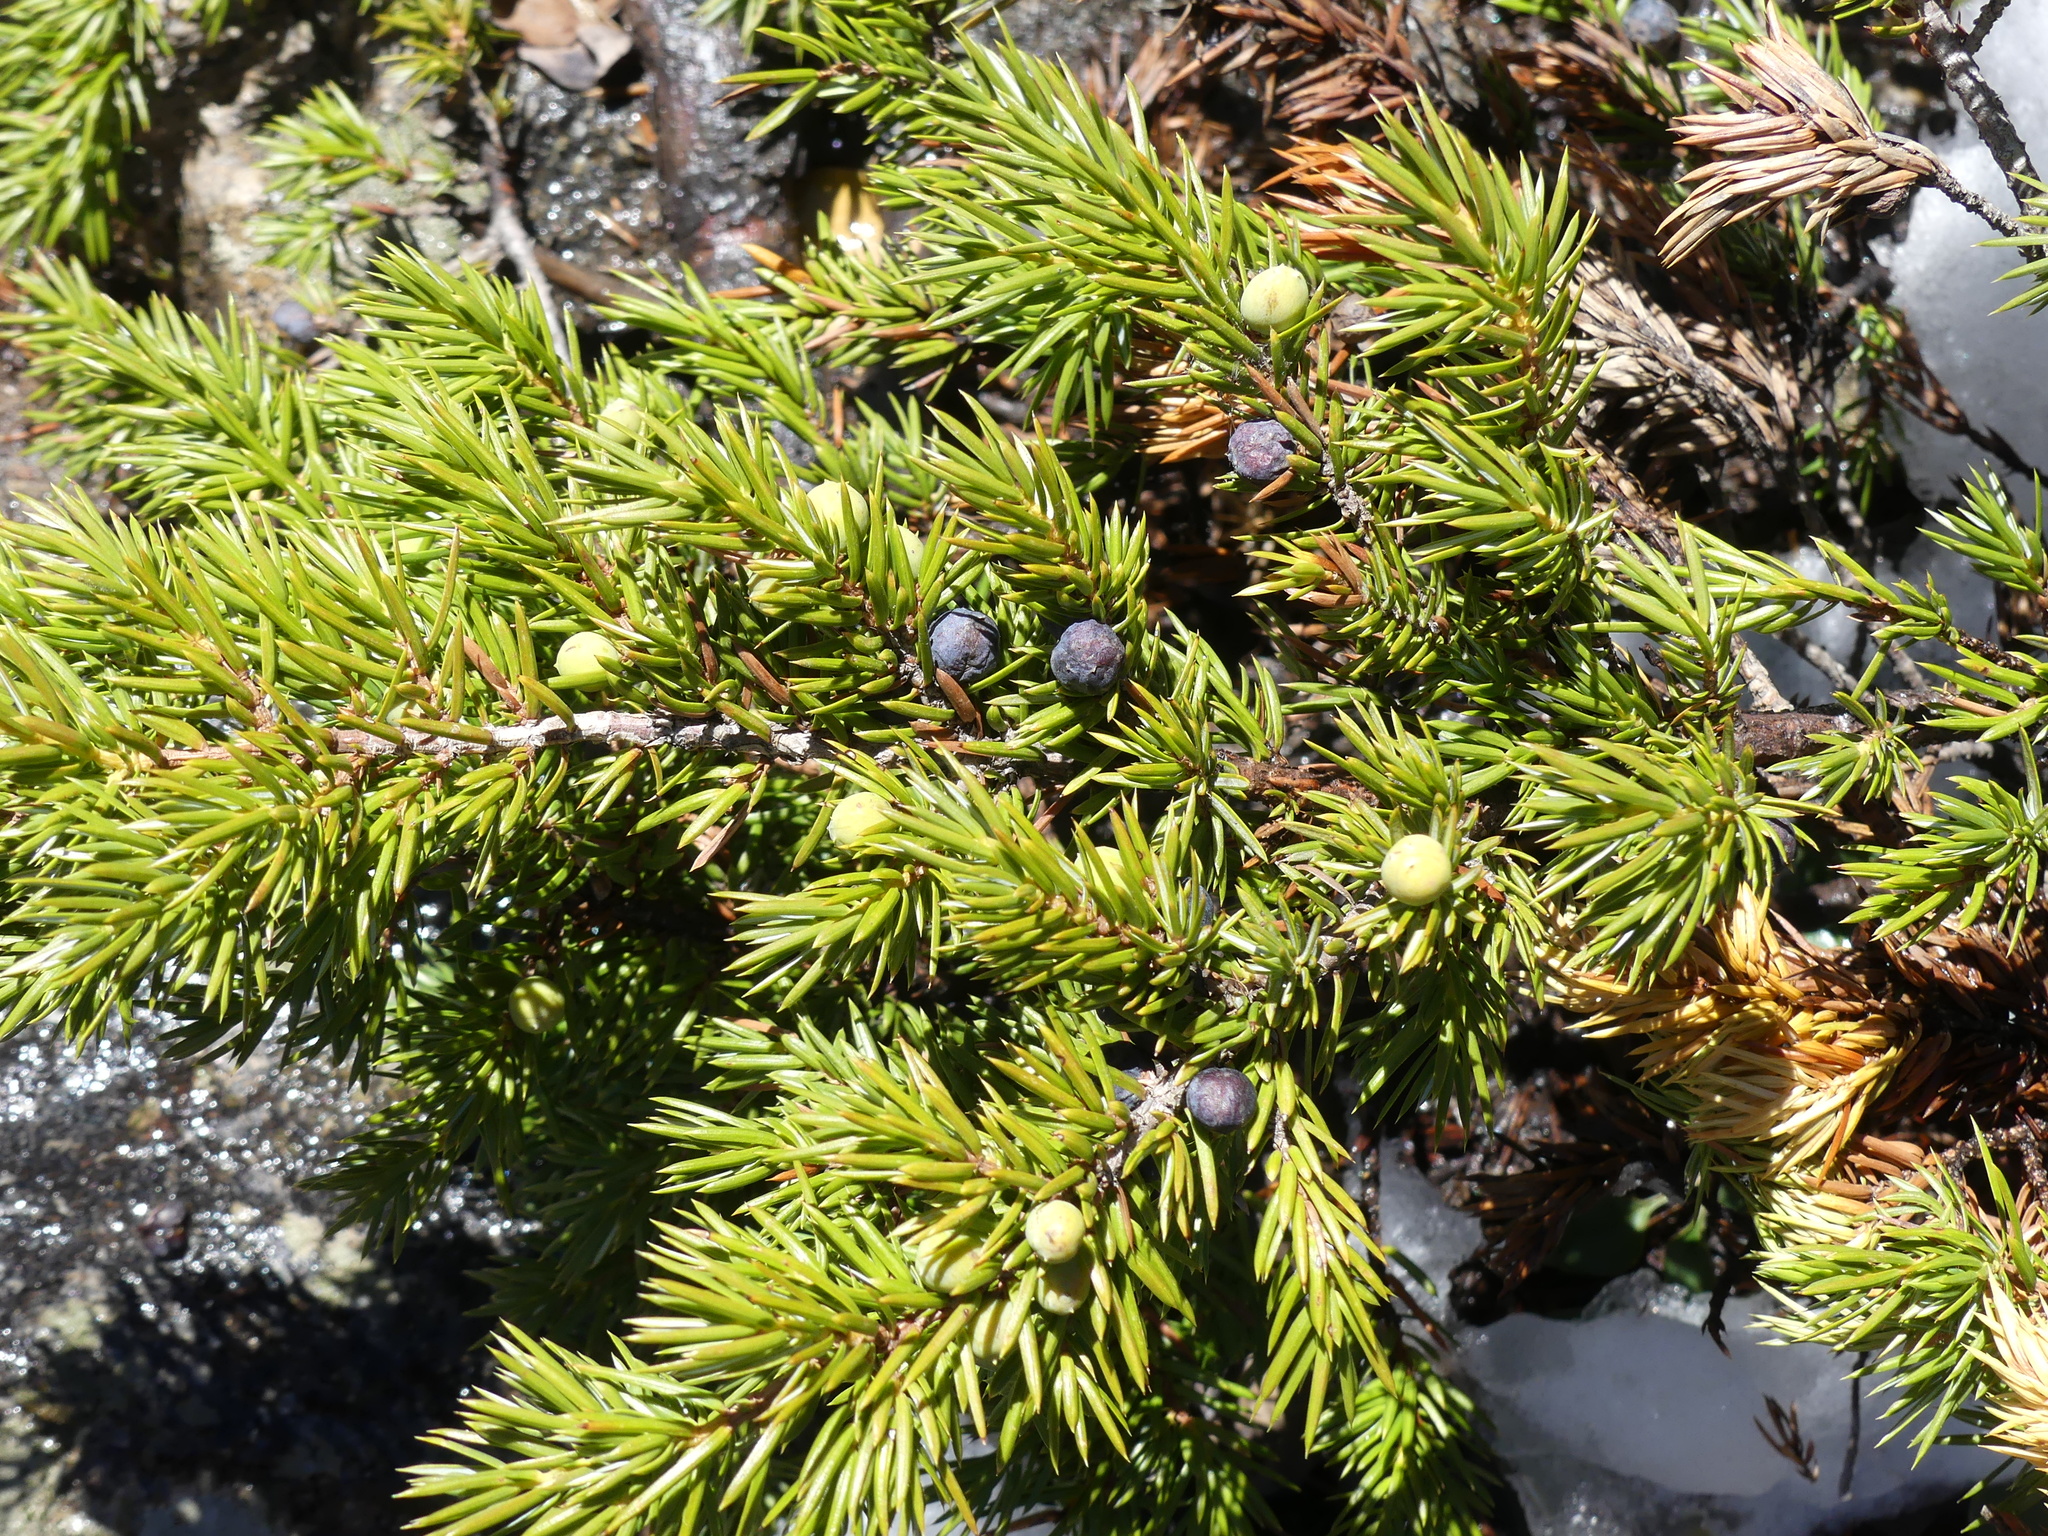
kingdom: Plantae
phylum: Tracheophyta
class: Pinopsida
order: Pinales
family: Cupressaceae
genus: Juniperus
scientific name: Juniperus communis
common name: Common juniper
